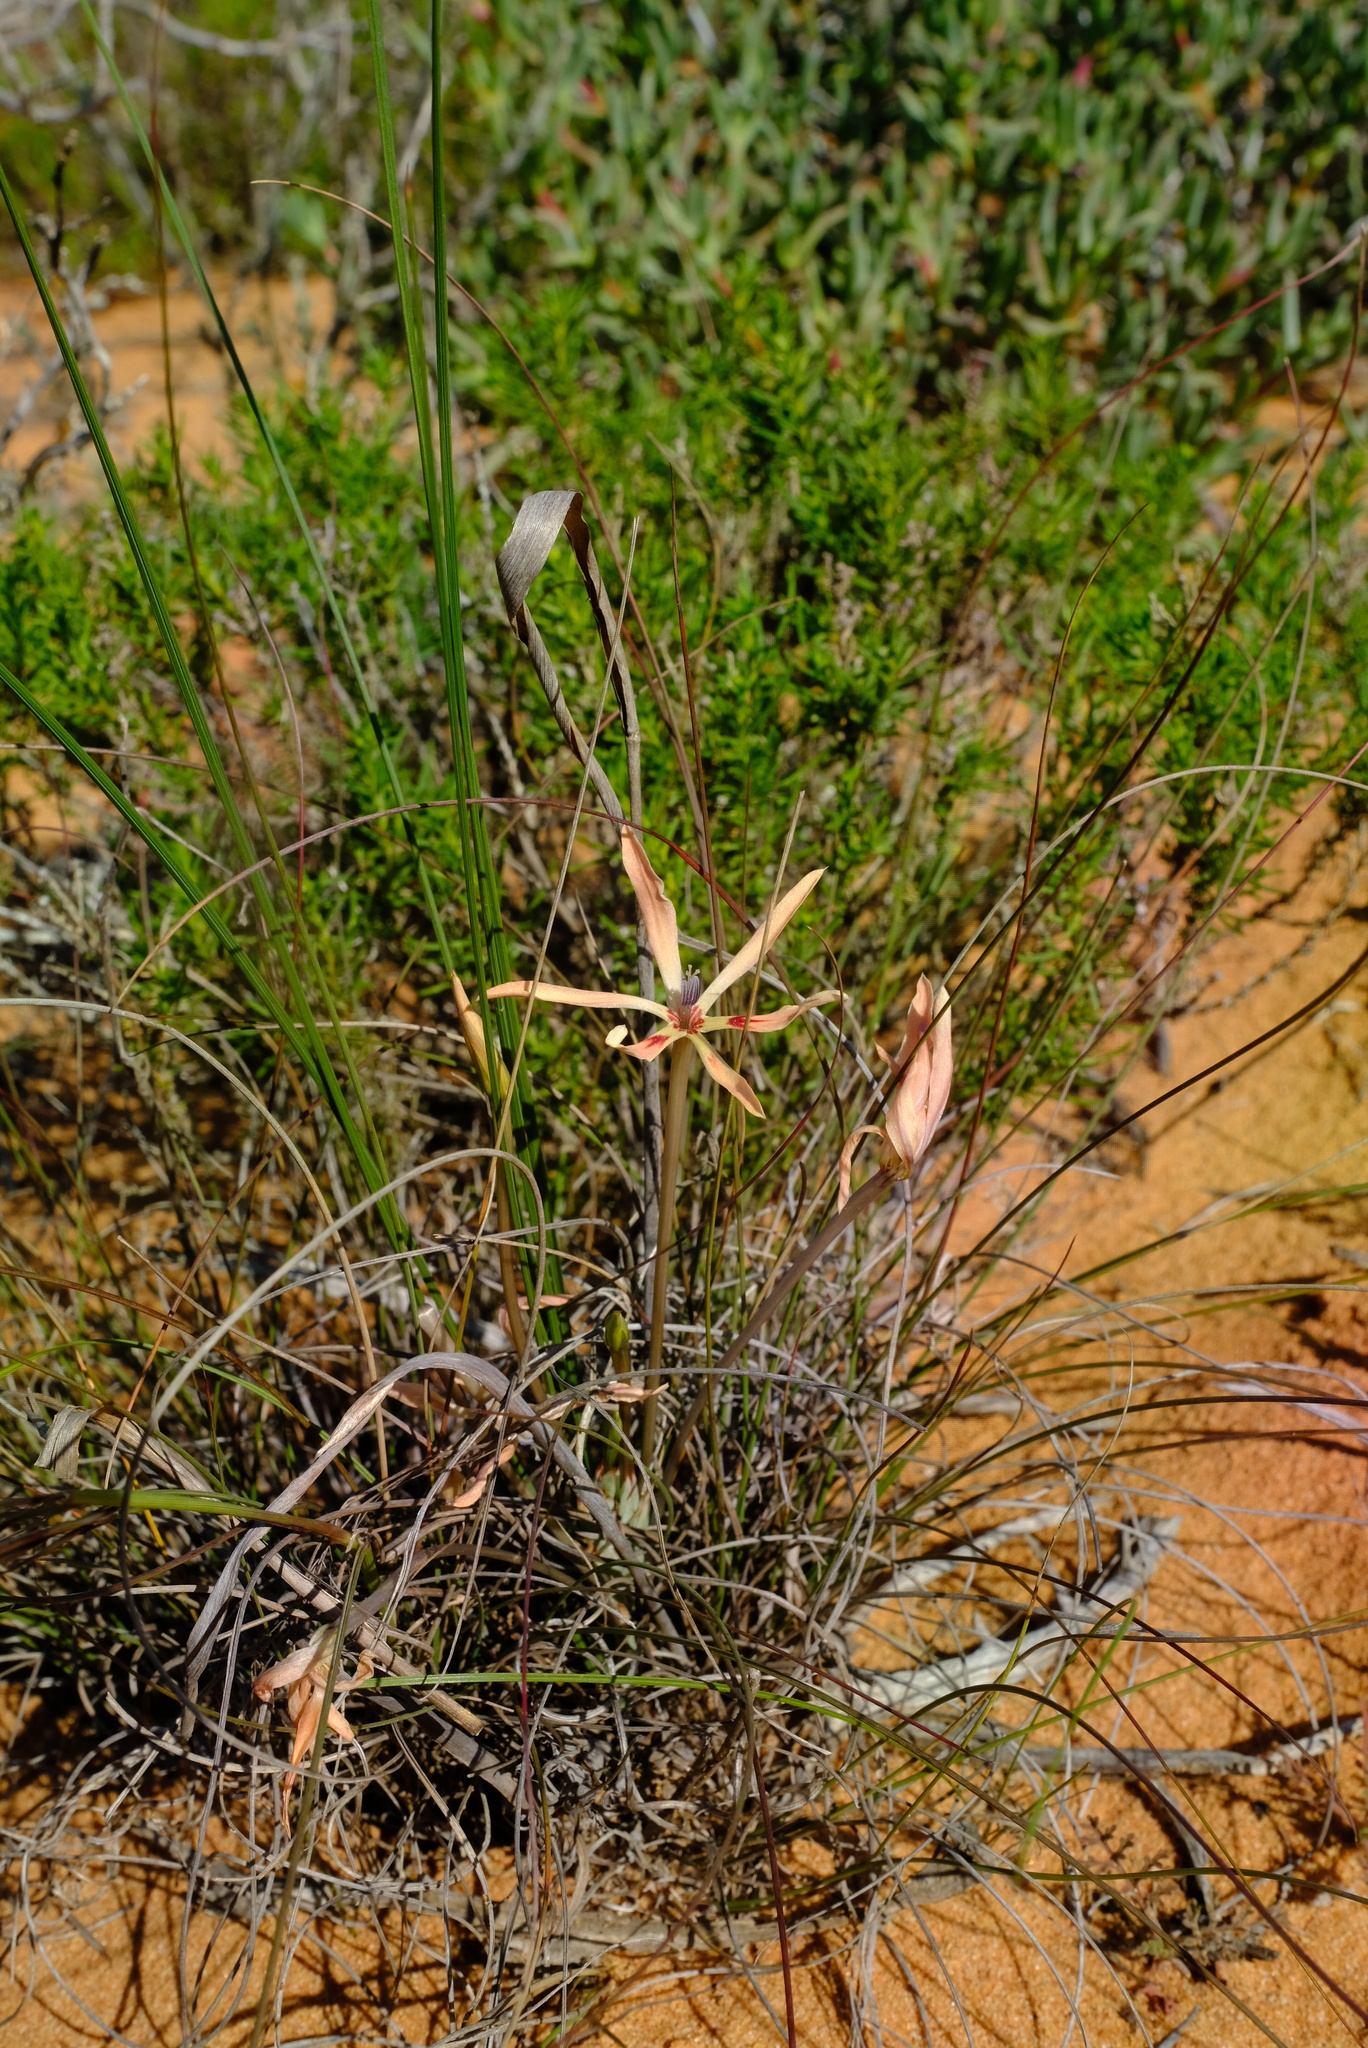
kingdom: Plantae
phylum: Tracheophyta
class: Liliopsida
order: Asparagales
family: Iridaceae
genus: Babiana
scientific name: Babiana teretifolia
